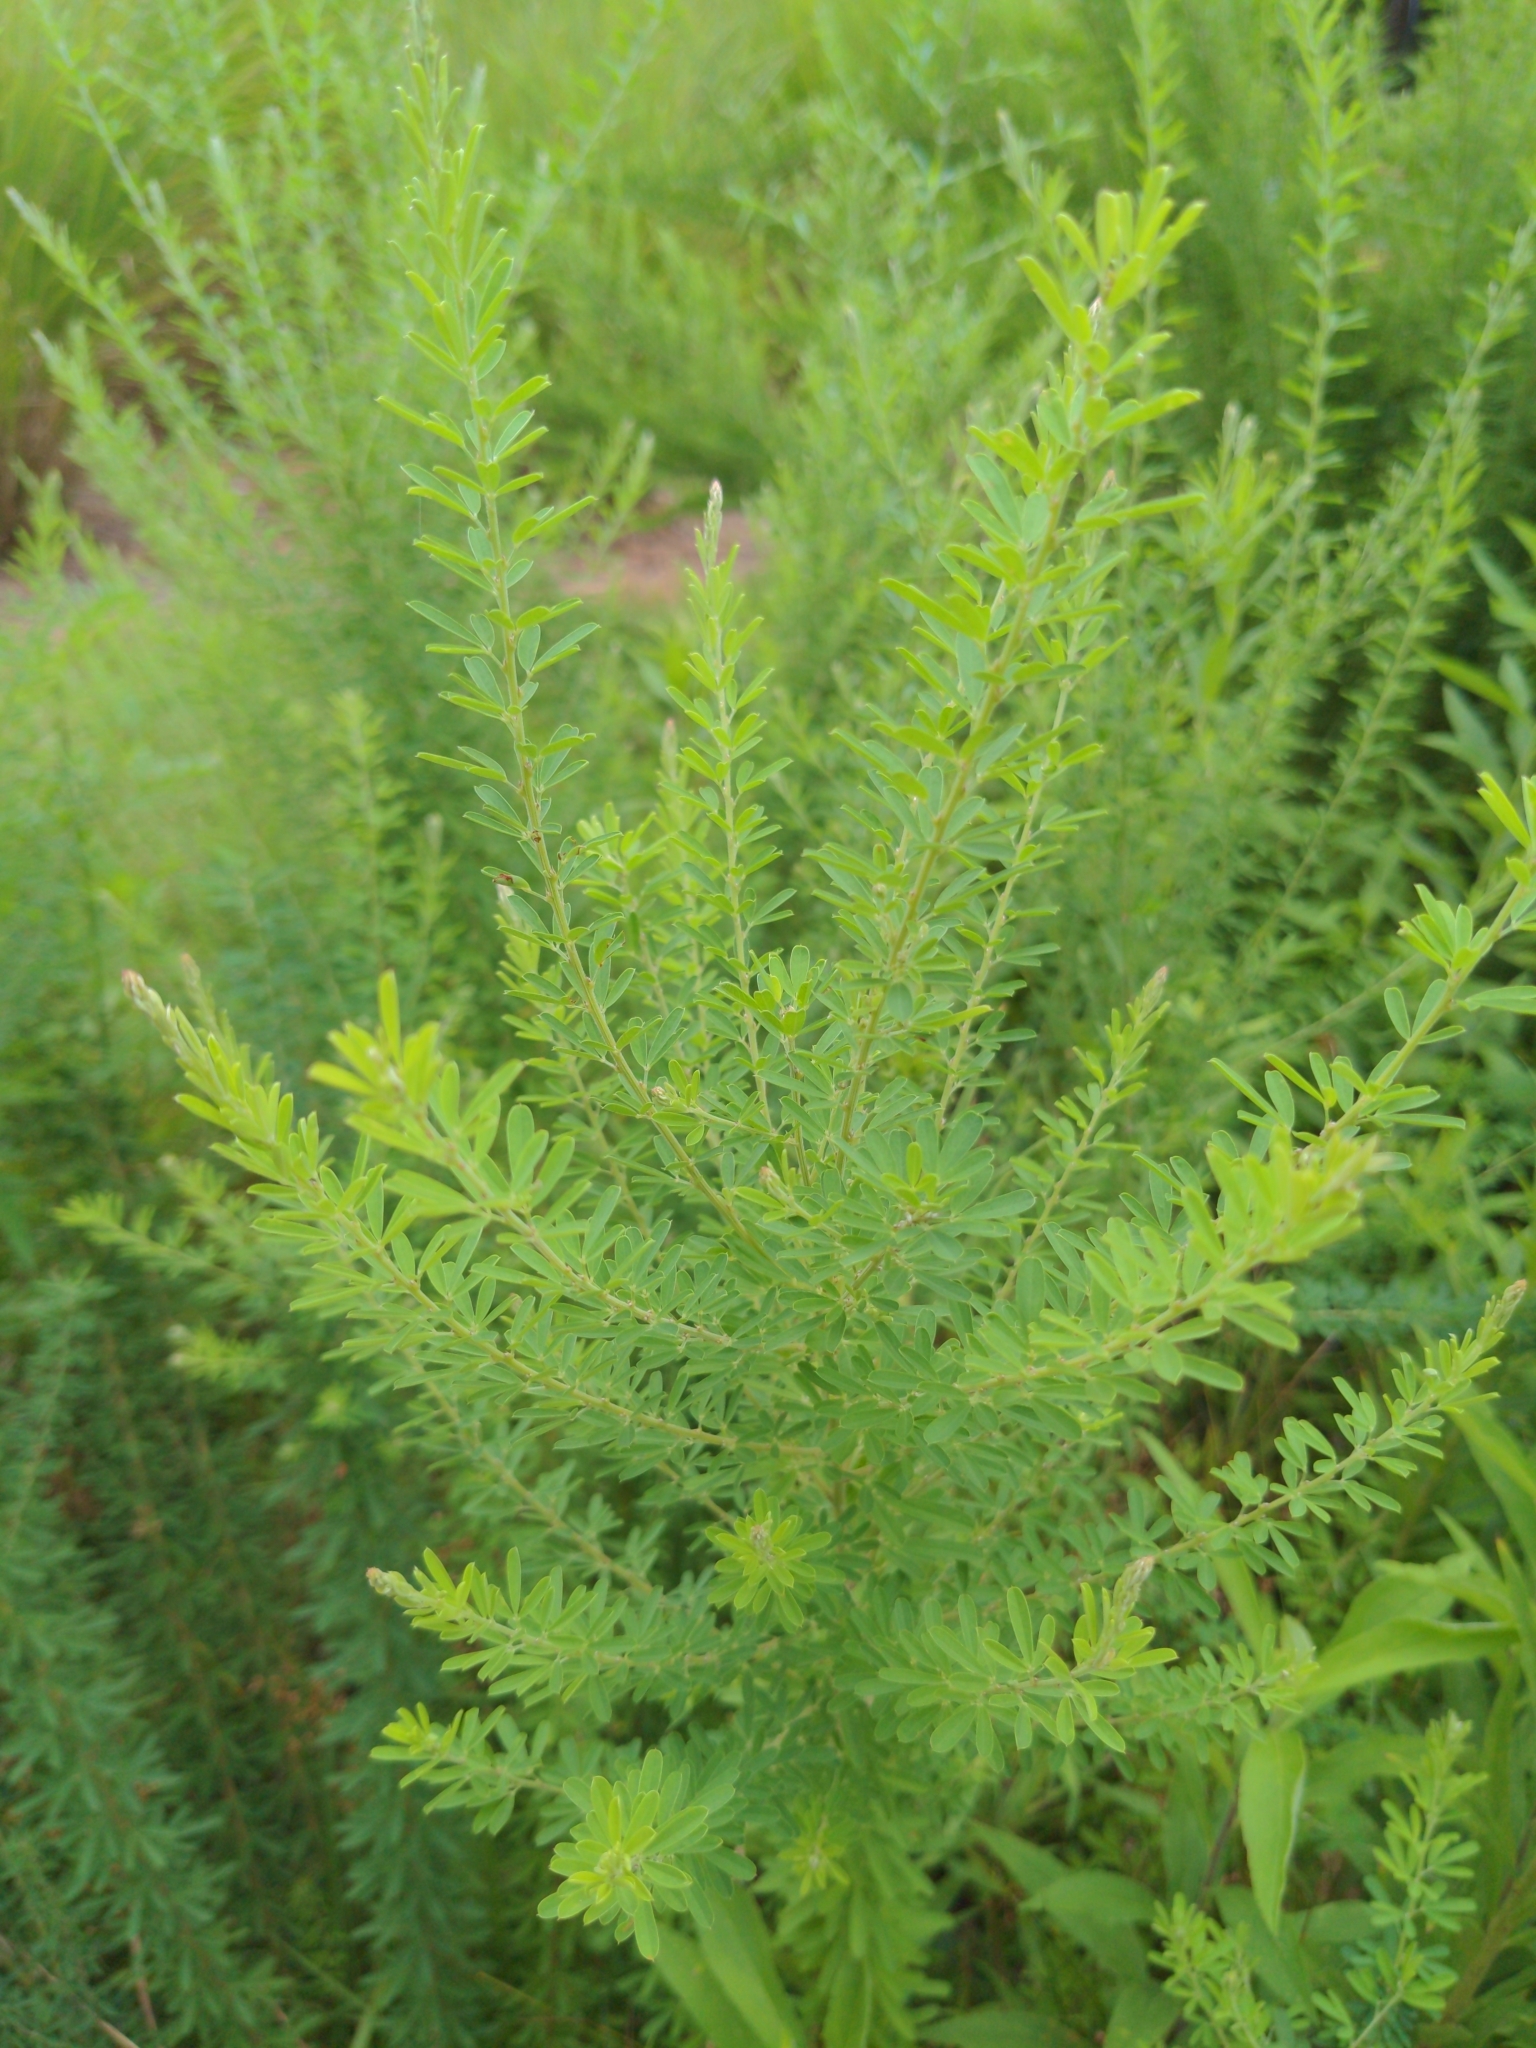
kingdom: Plantae
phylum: Tracheophyta
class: Magnoliopsida
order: Fabales
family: Fabaceae
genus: Lespedeza
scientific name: Lespedeza cuneata
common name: Chinese bush-clover
